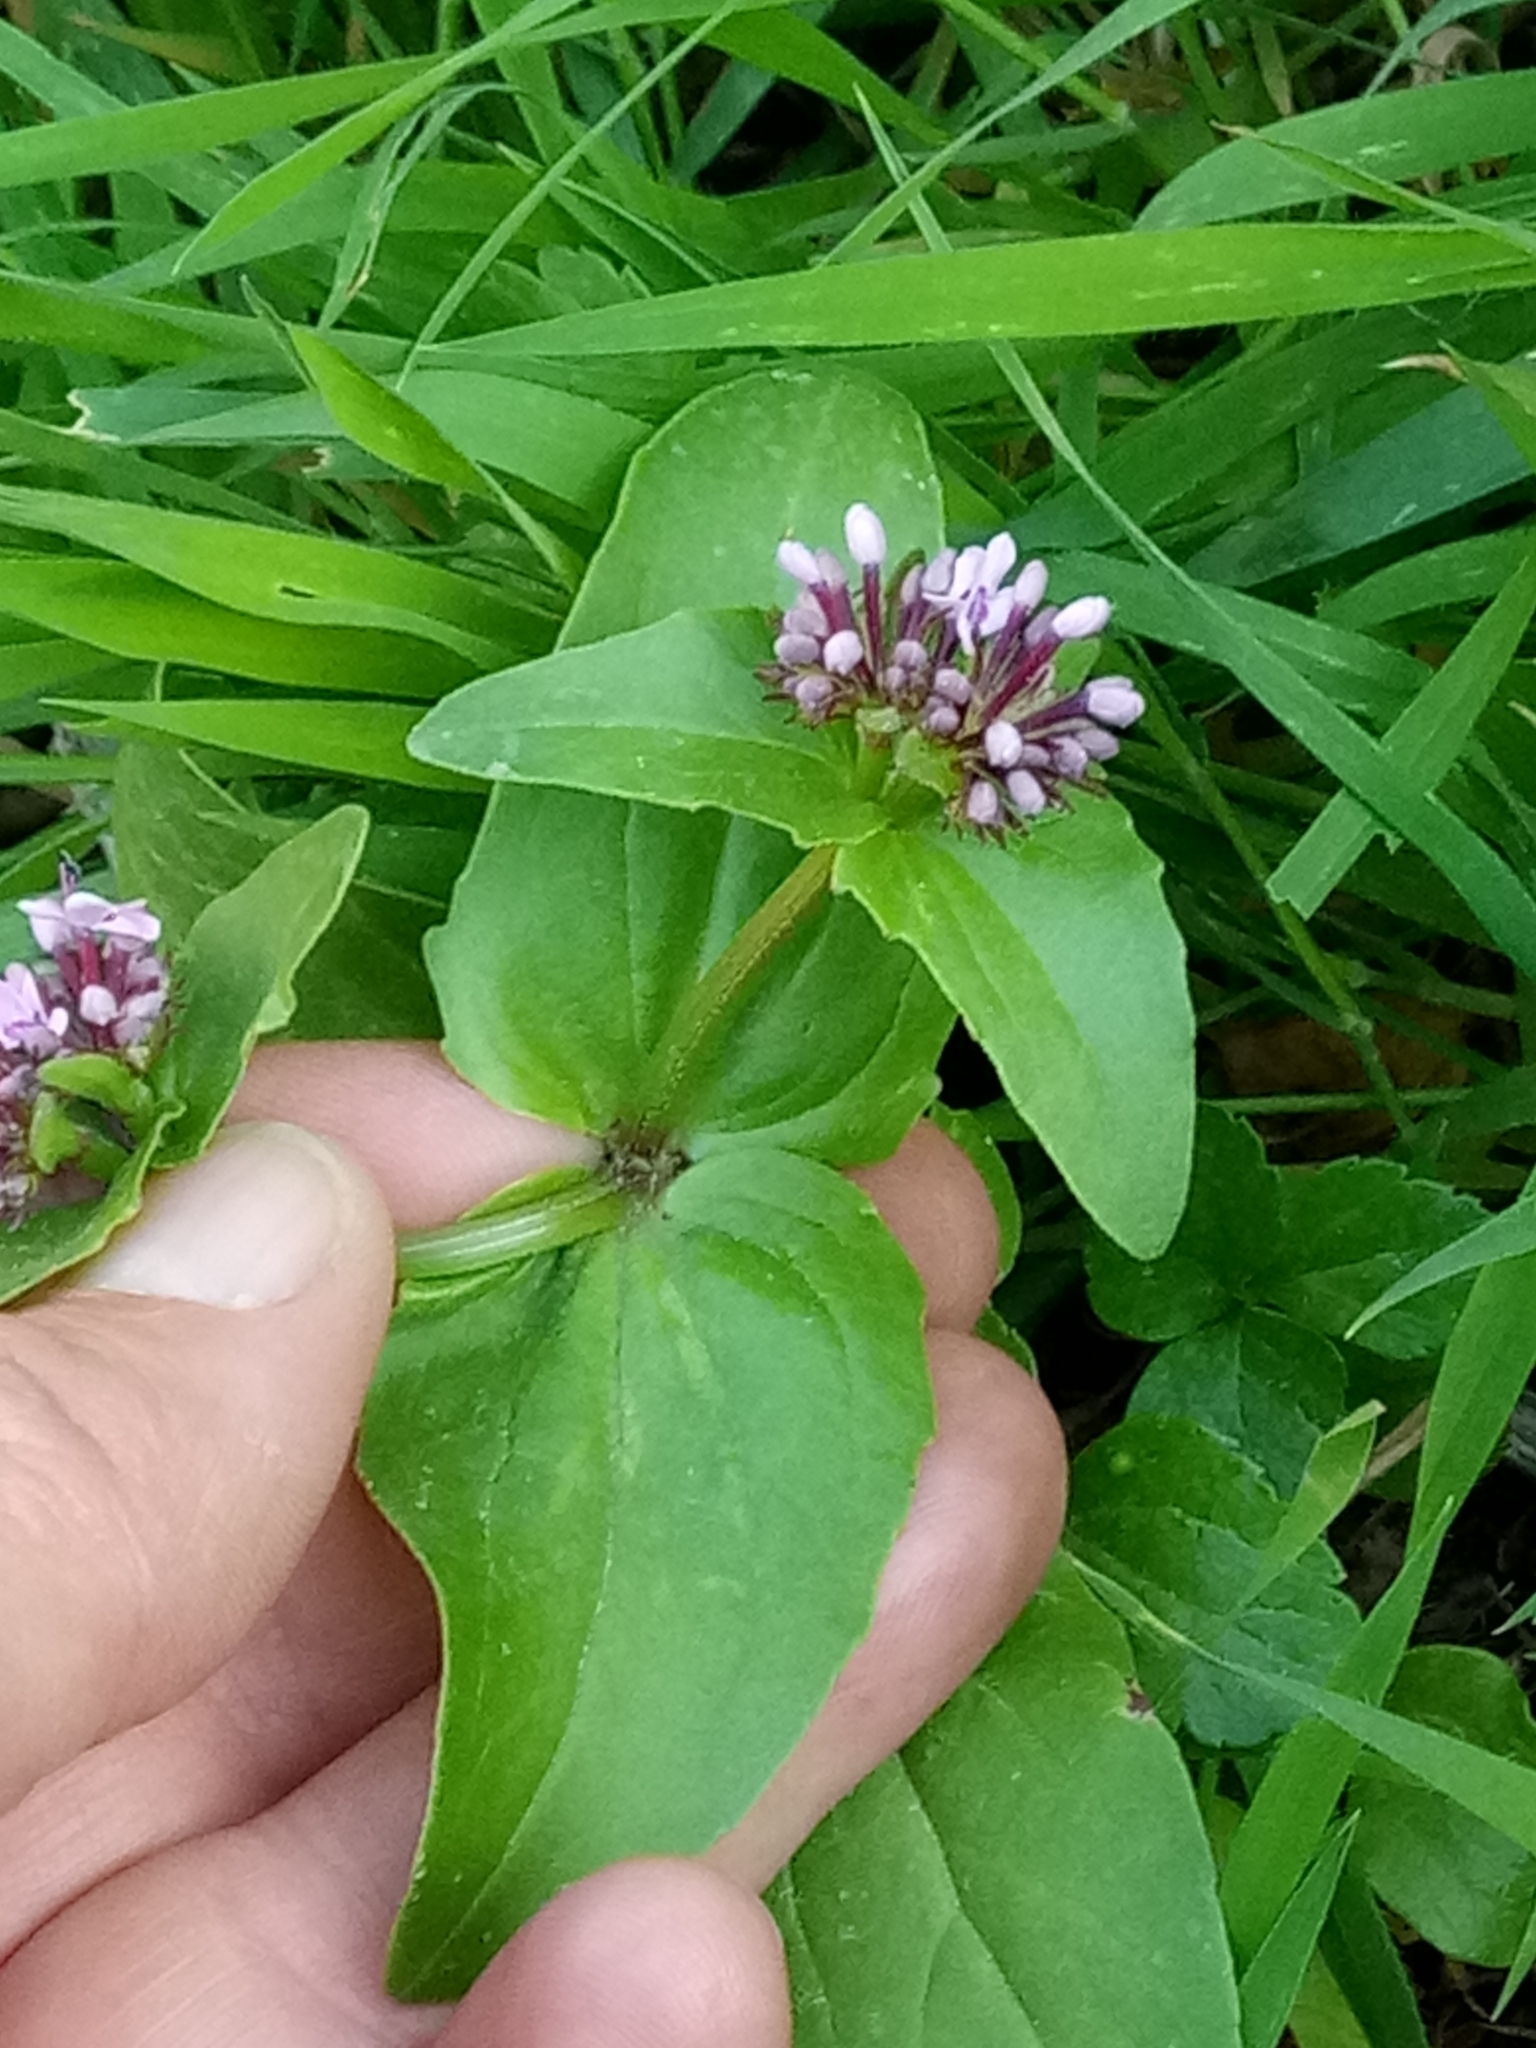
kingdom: Plantae
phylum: Tracheophyta
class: Magnoliopsida
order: Dipsacales
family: Caprifoliaceae
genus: Fedia
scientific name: Fedia graciliflora
